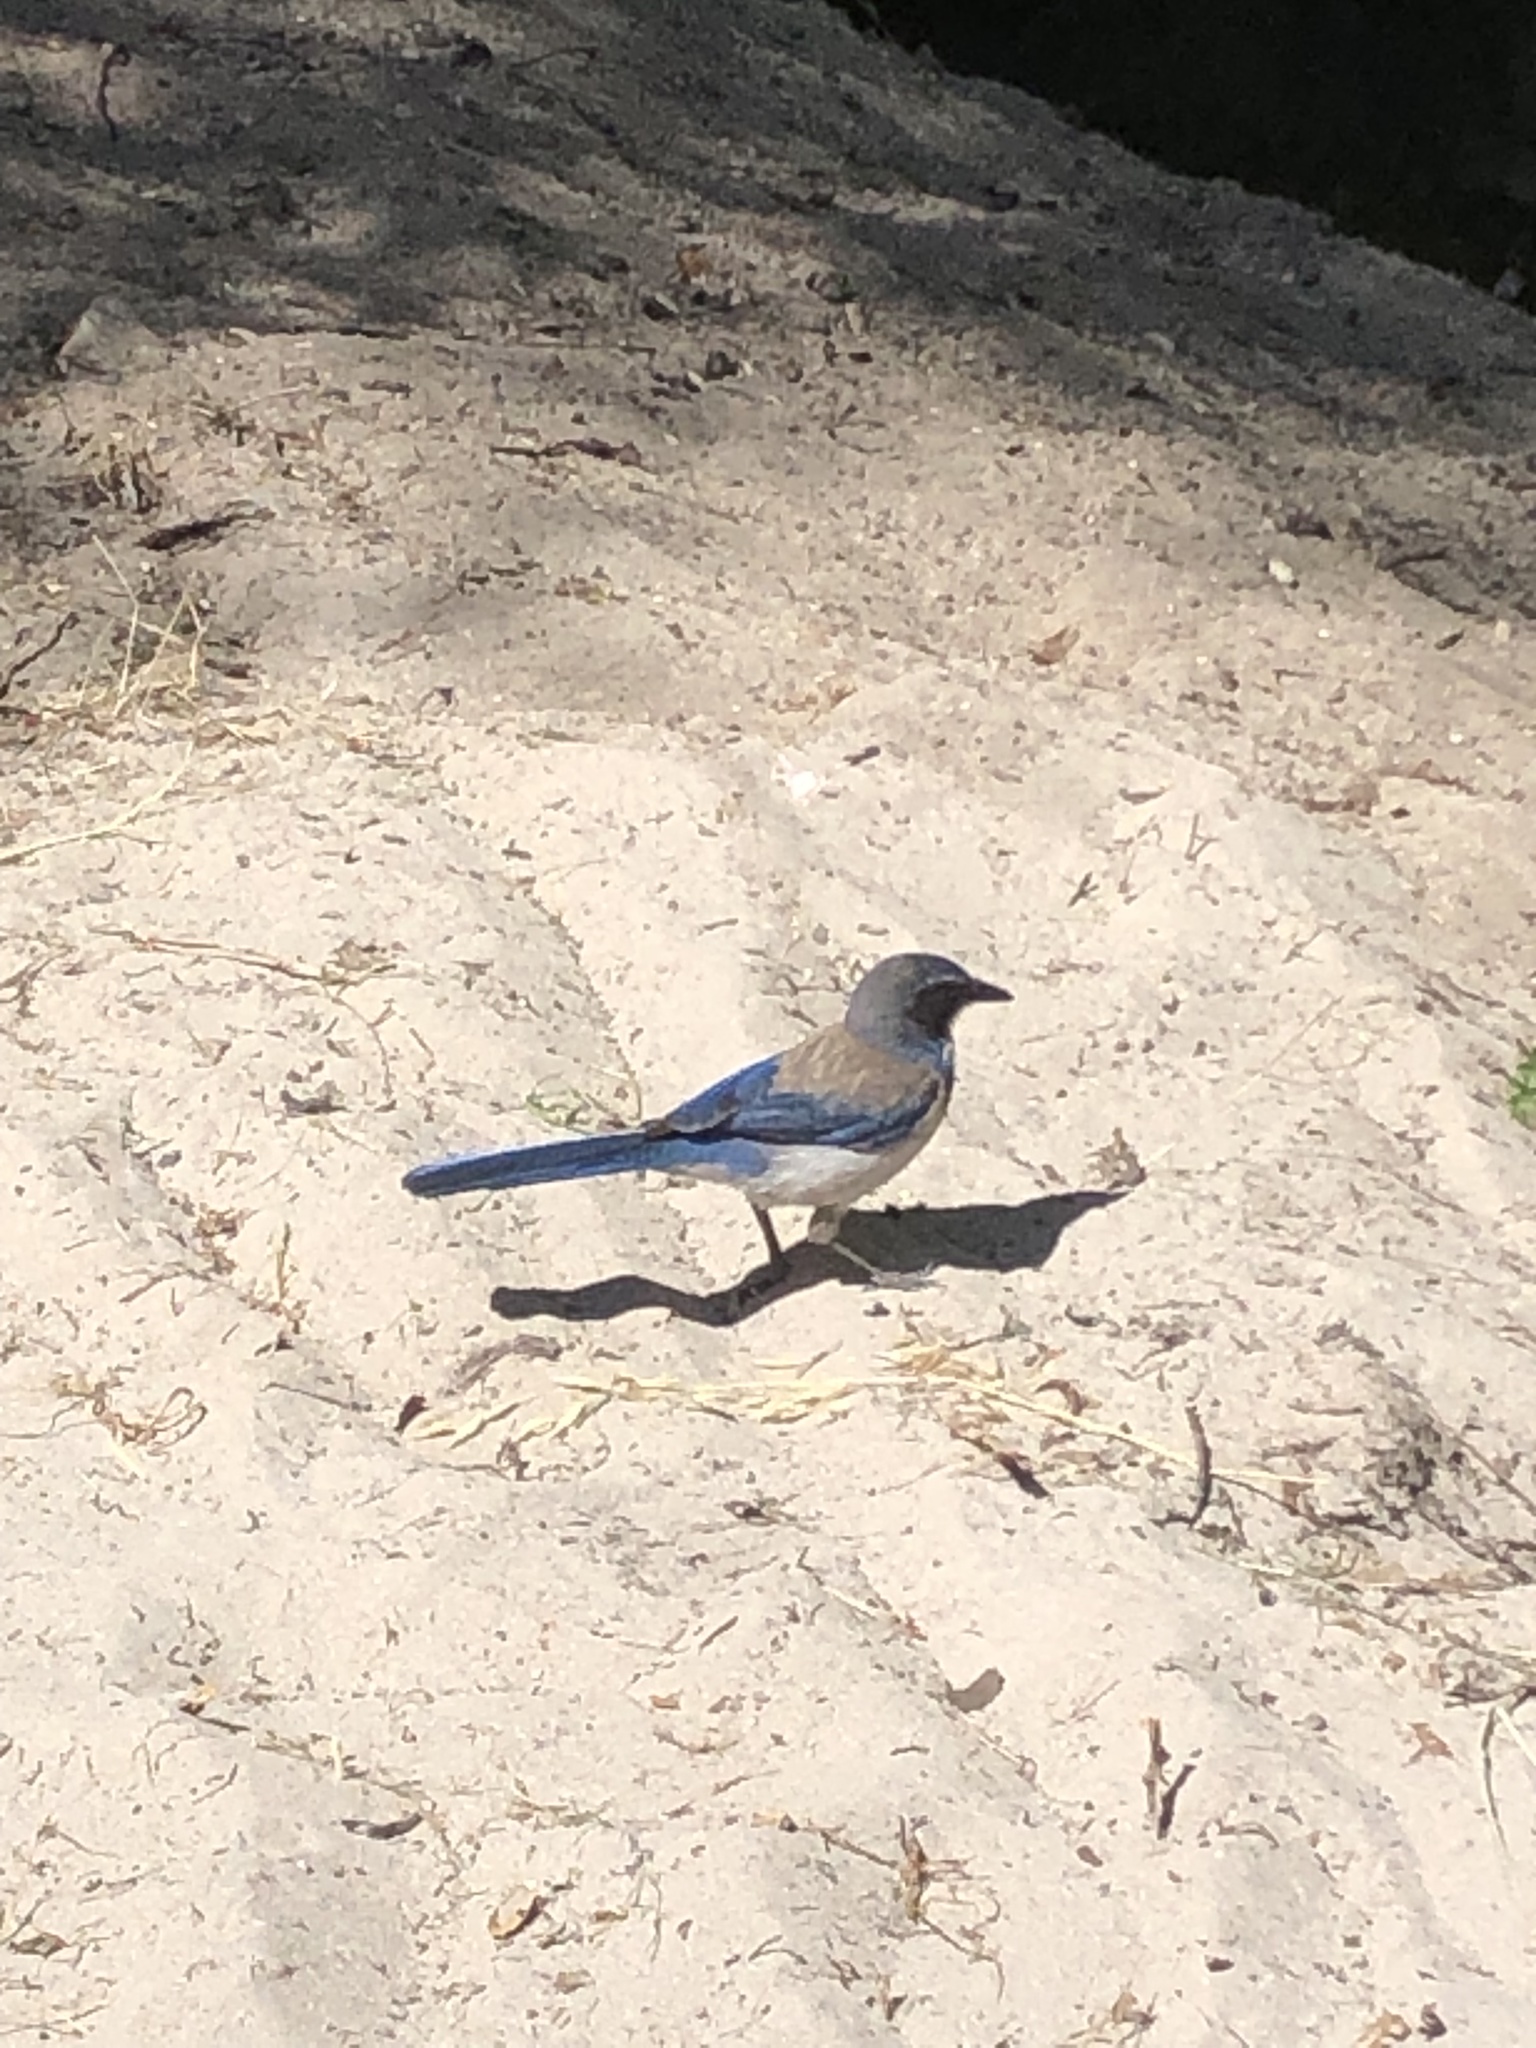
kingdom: Animalia
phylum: Chordata
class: Aves
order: Passeriformes
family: Corvidae
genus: Aphelocoma
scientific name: Aphelocoma californica
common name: California scrub-jay
